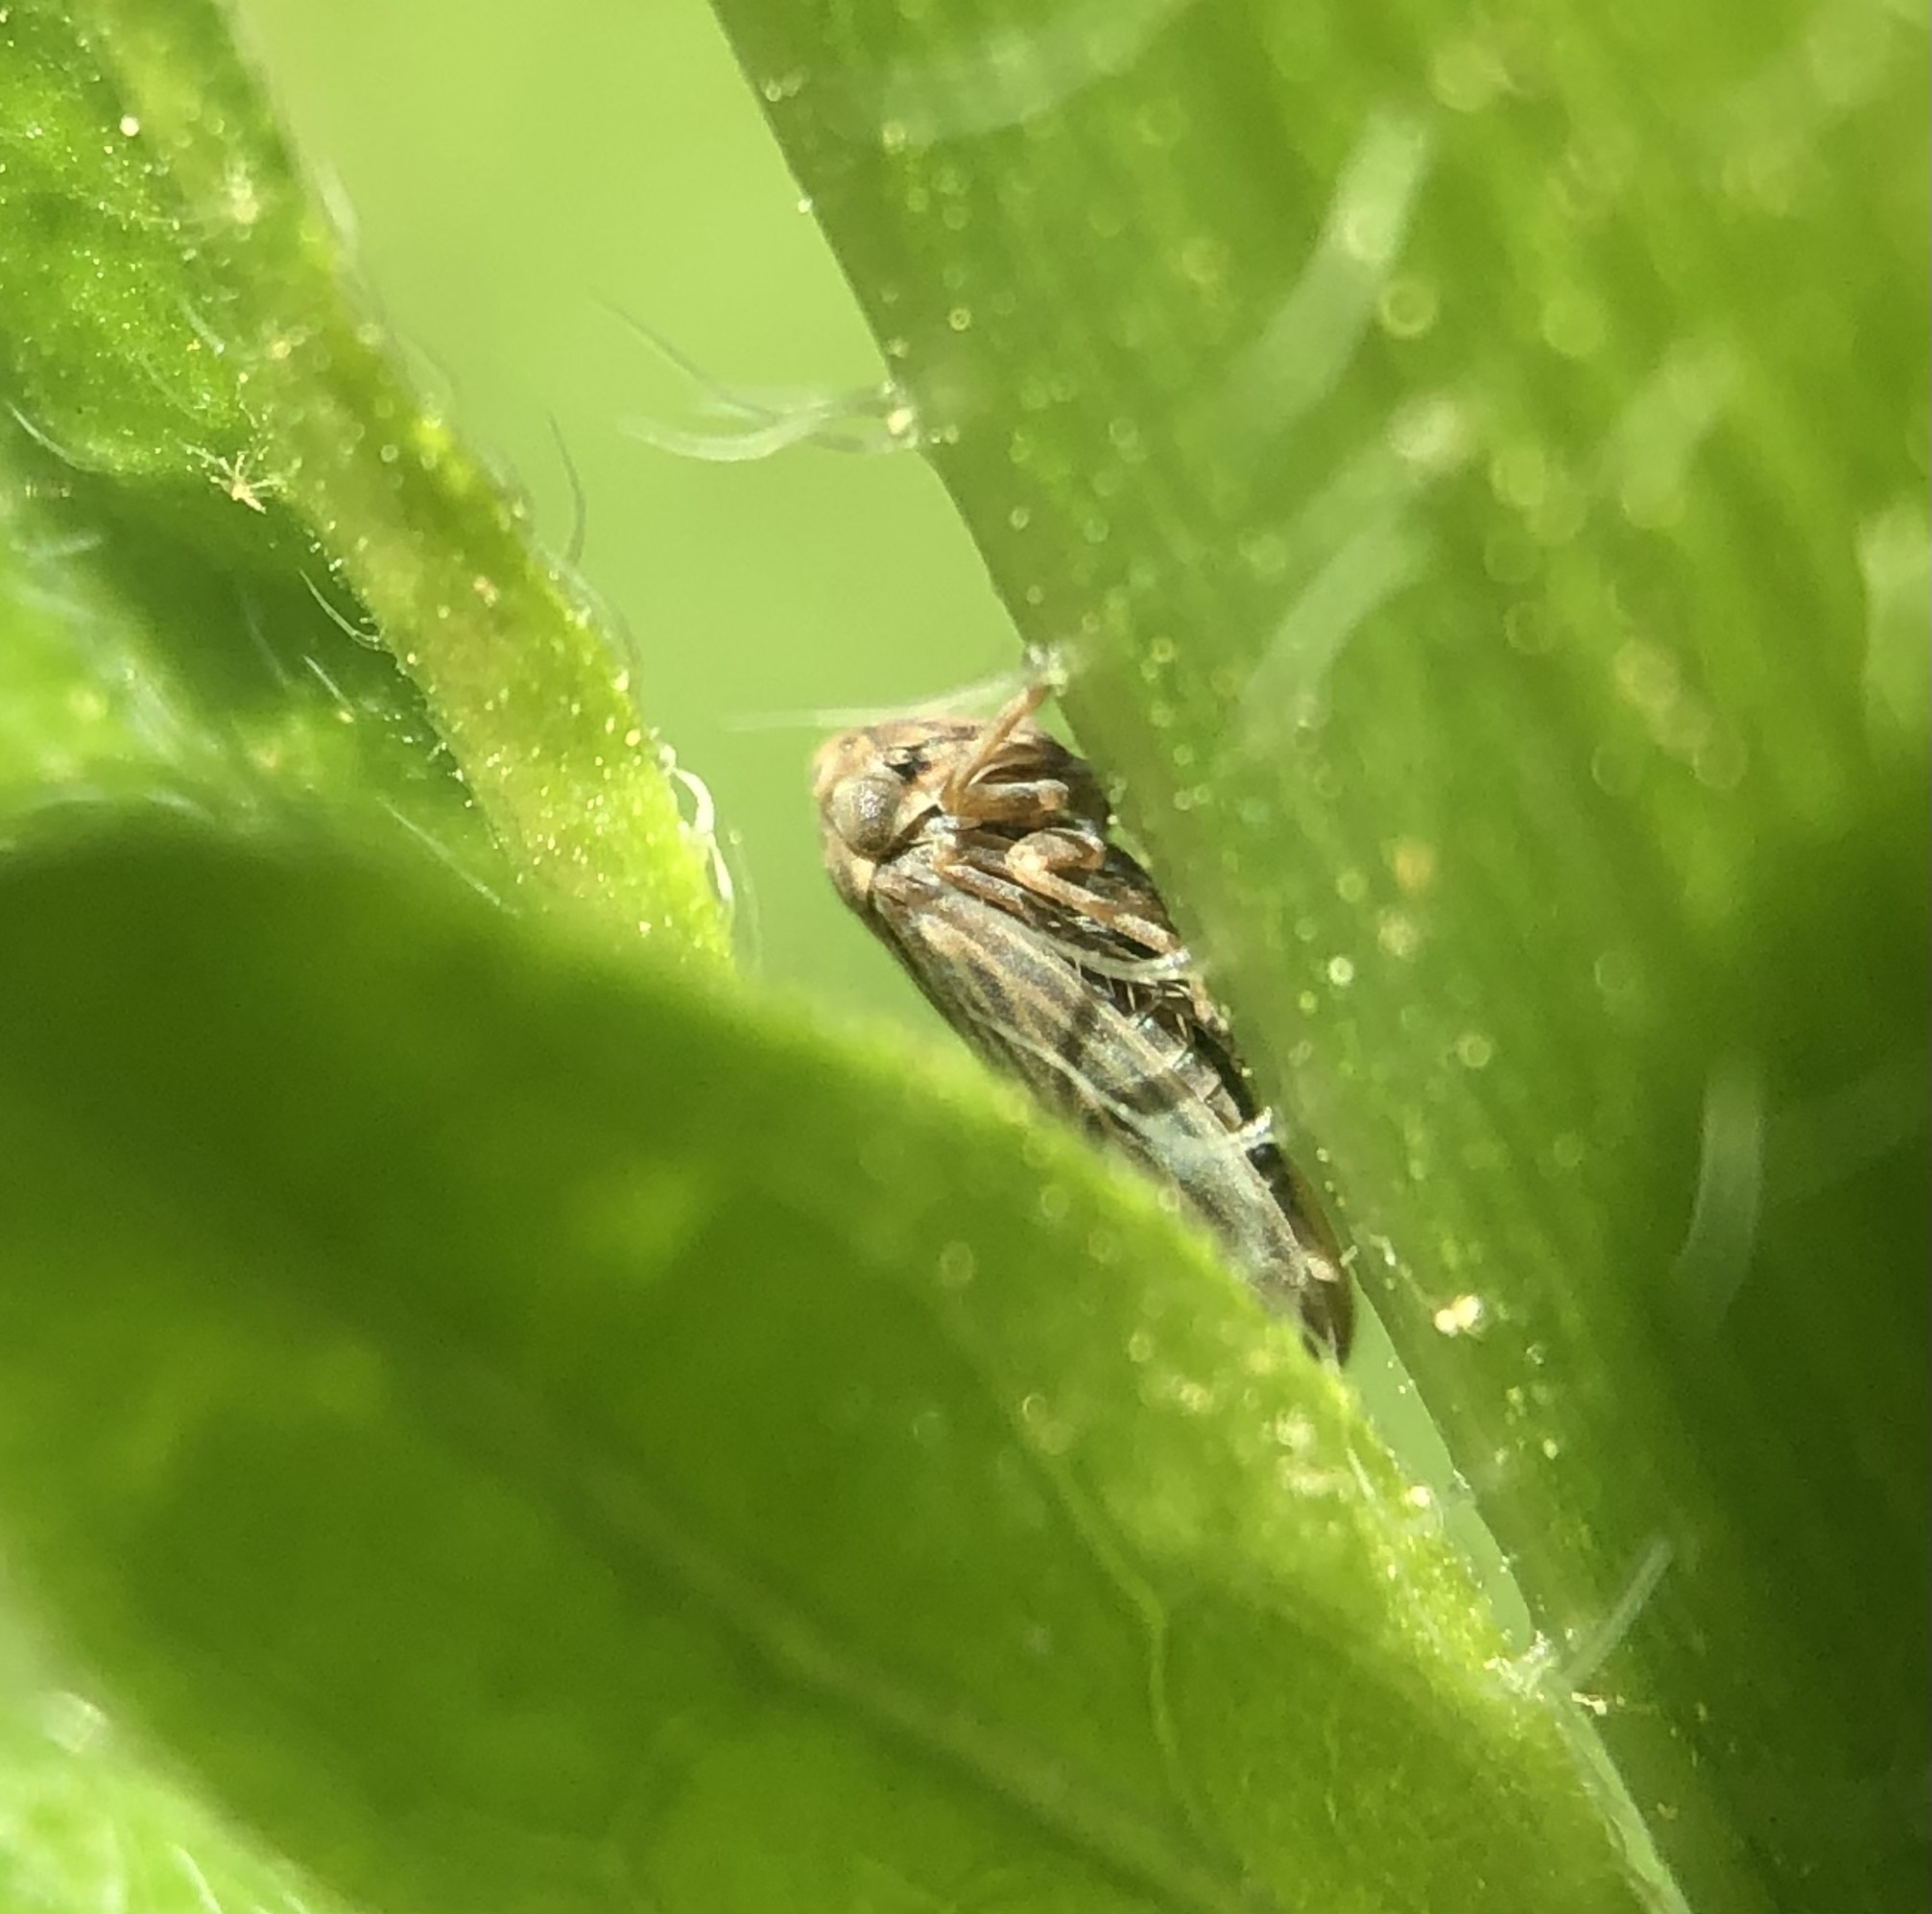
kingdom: Animalia
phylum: Arthropoda
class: Insecta
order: Hemiptera
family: Cicadellidae
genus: Agallia
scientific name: Agallia constricta
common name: The constricted leafhopper
